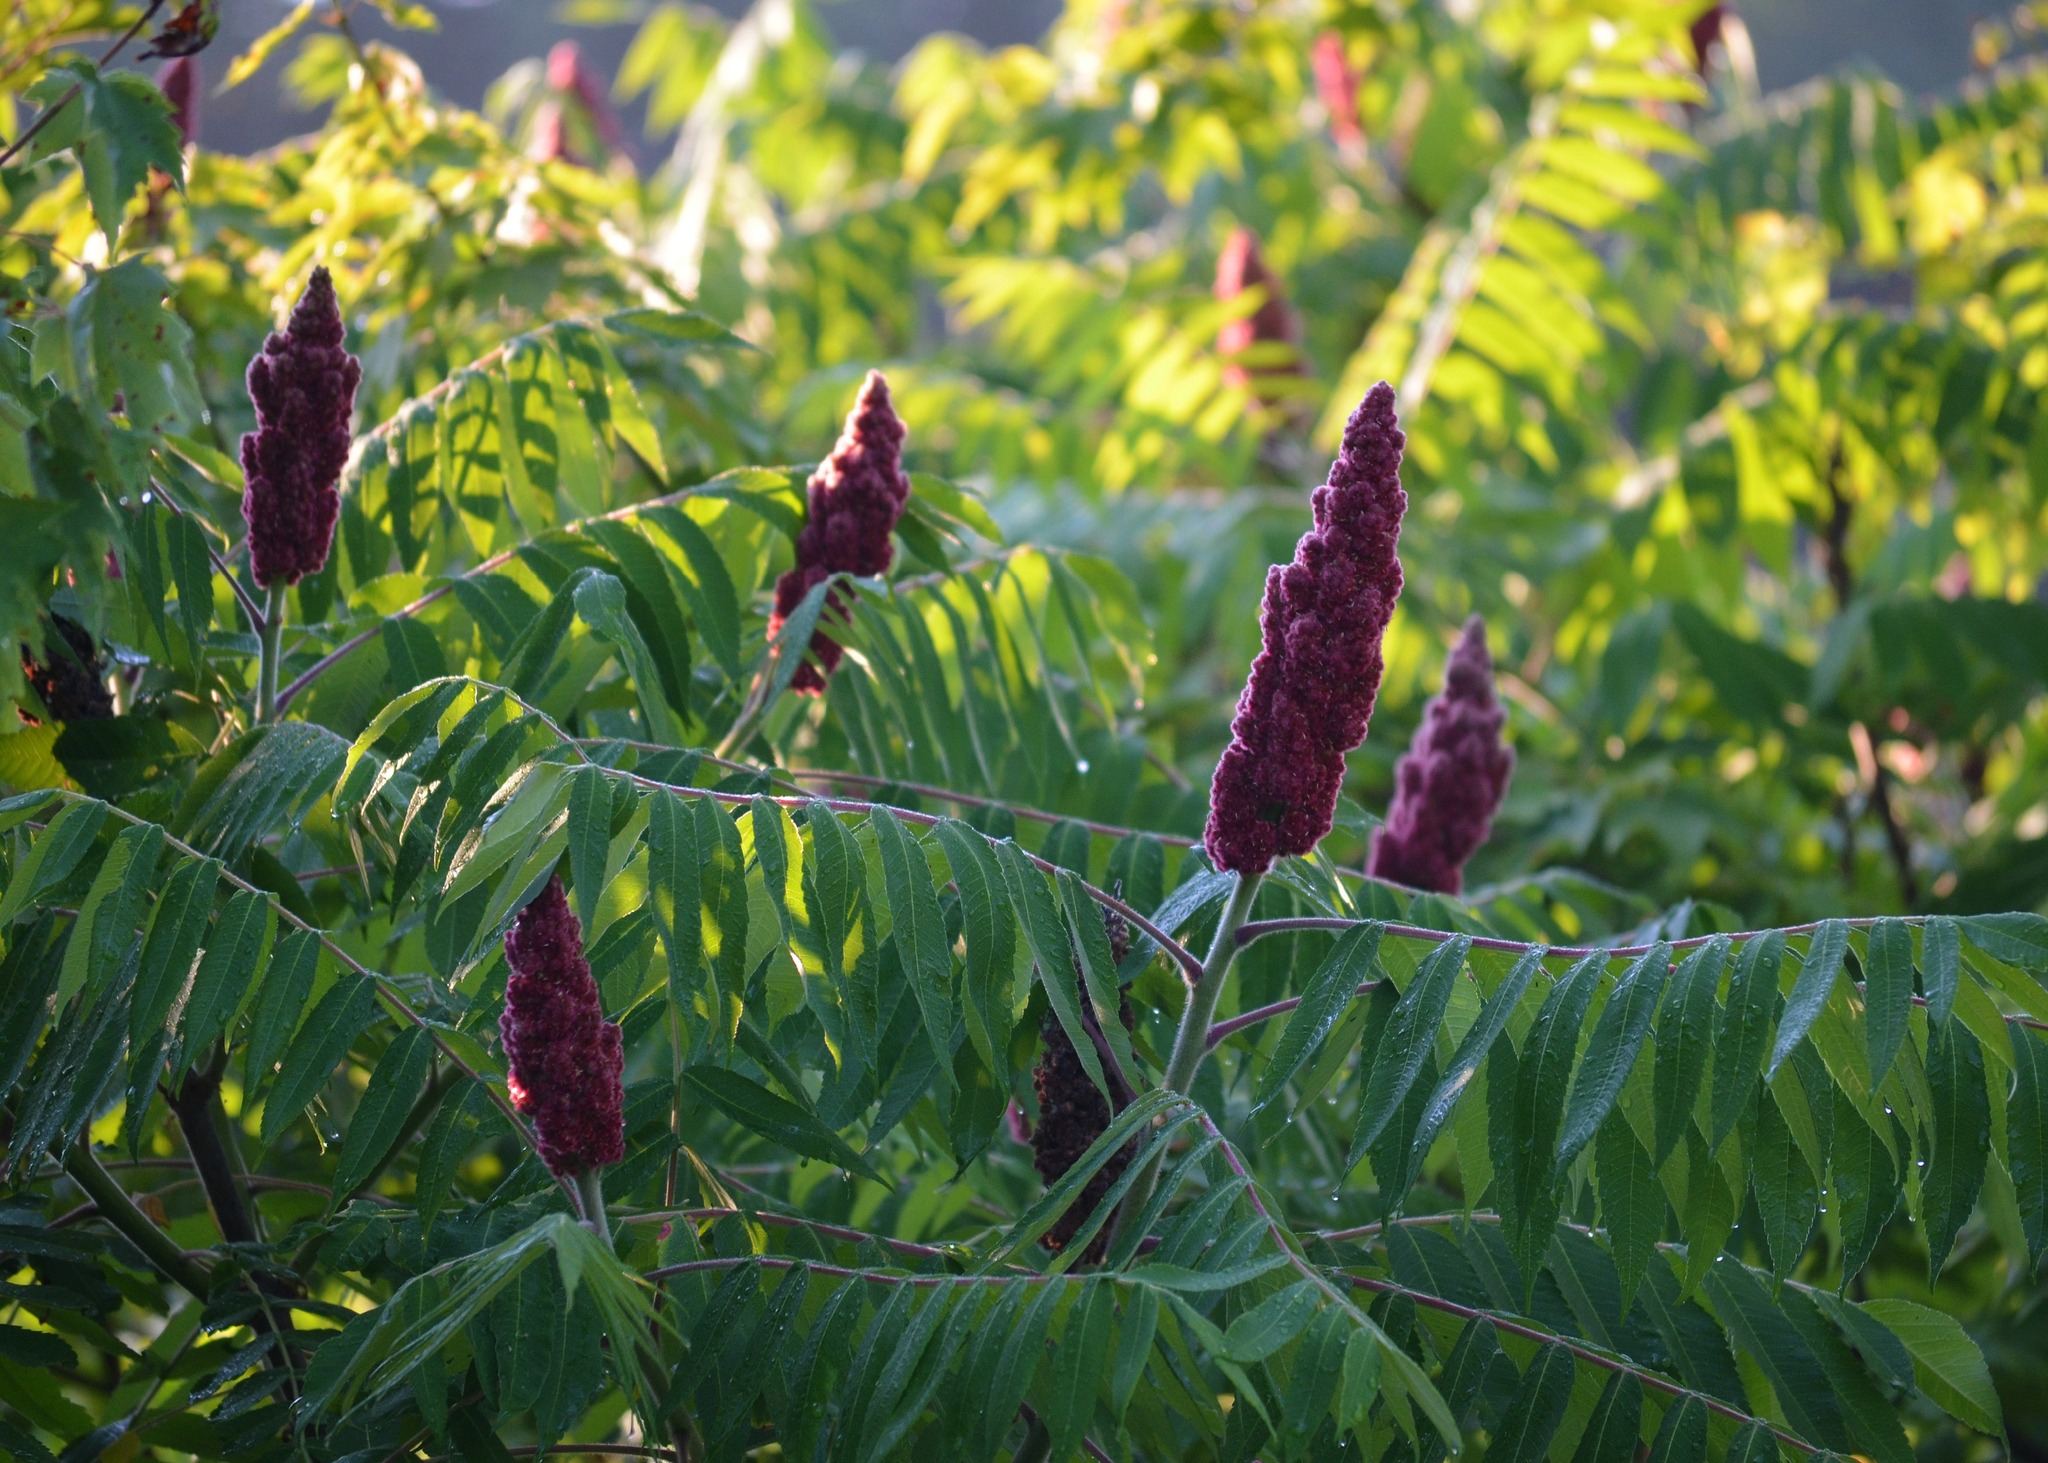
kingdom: Plantae
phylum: Tracheophyta
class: Magnoliopsida
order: Sapindales
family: Anacardiaceae
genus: Rhus
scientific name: Rhus typhina
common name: Staghorn sumac
